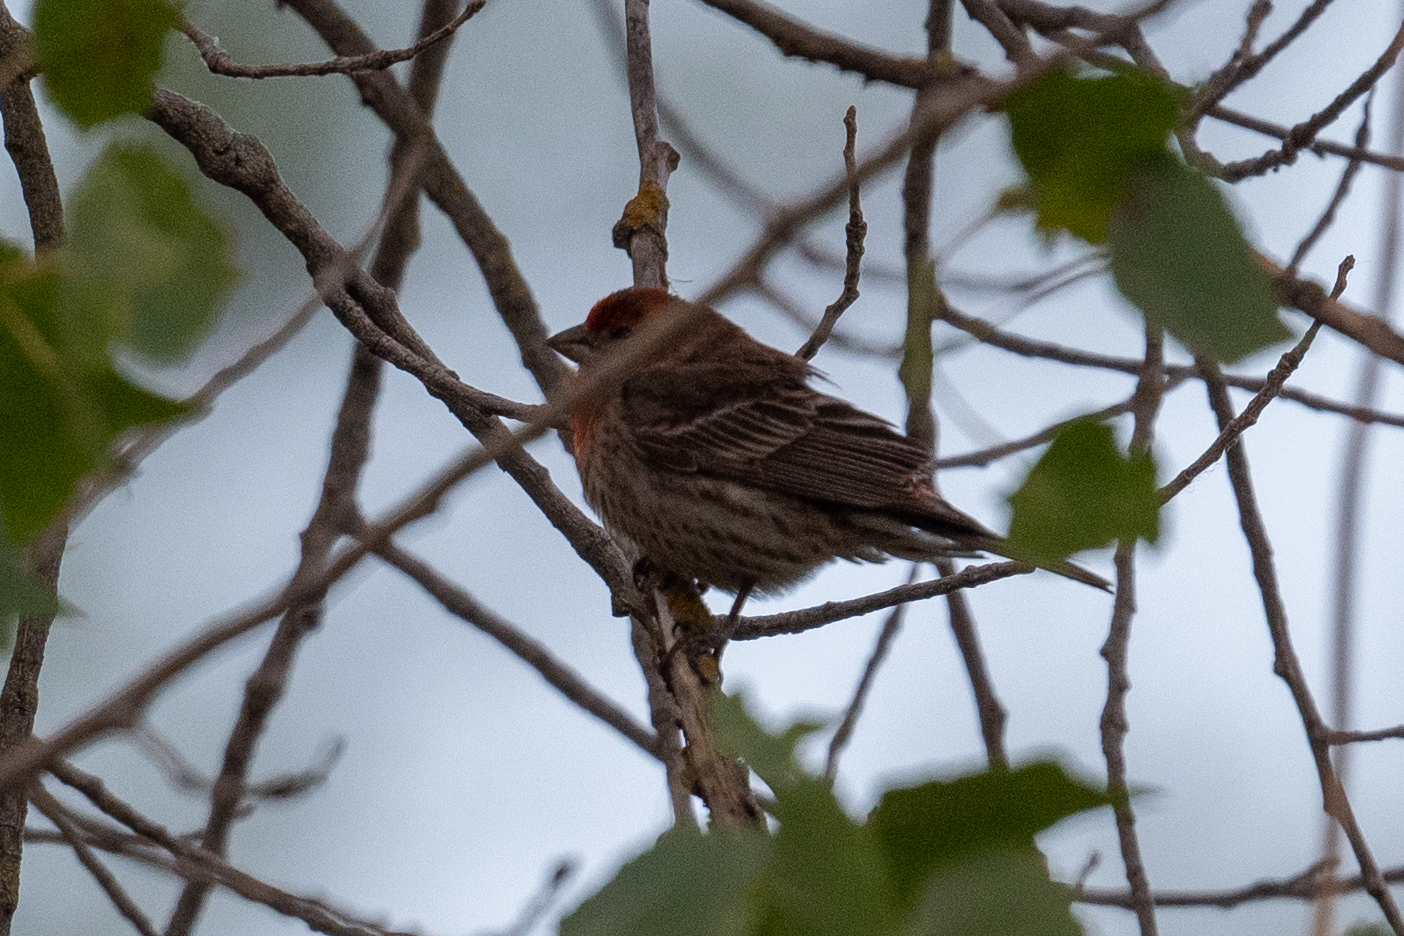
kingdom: Animalia
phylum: Chordata
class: Aves
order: Passeriformes
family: Fringillidae
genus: Haemorhous
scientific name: Haemorhous mexicanus
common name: House finch
